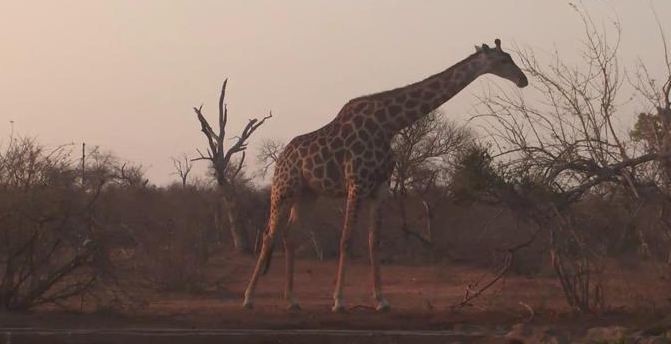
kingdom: Animalia
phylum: Chordata
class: Mammalia
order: Artiodactyla
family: Giraffidae
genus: Giraffa
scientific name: Giraffa giraffa
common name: Southern giraffe
